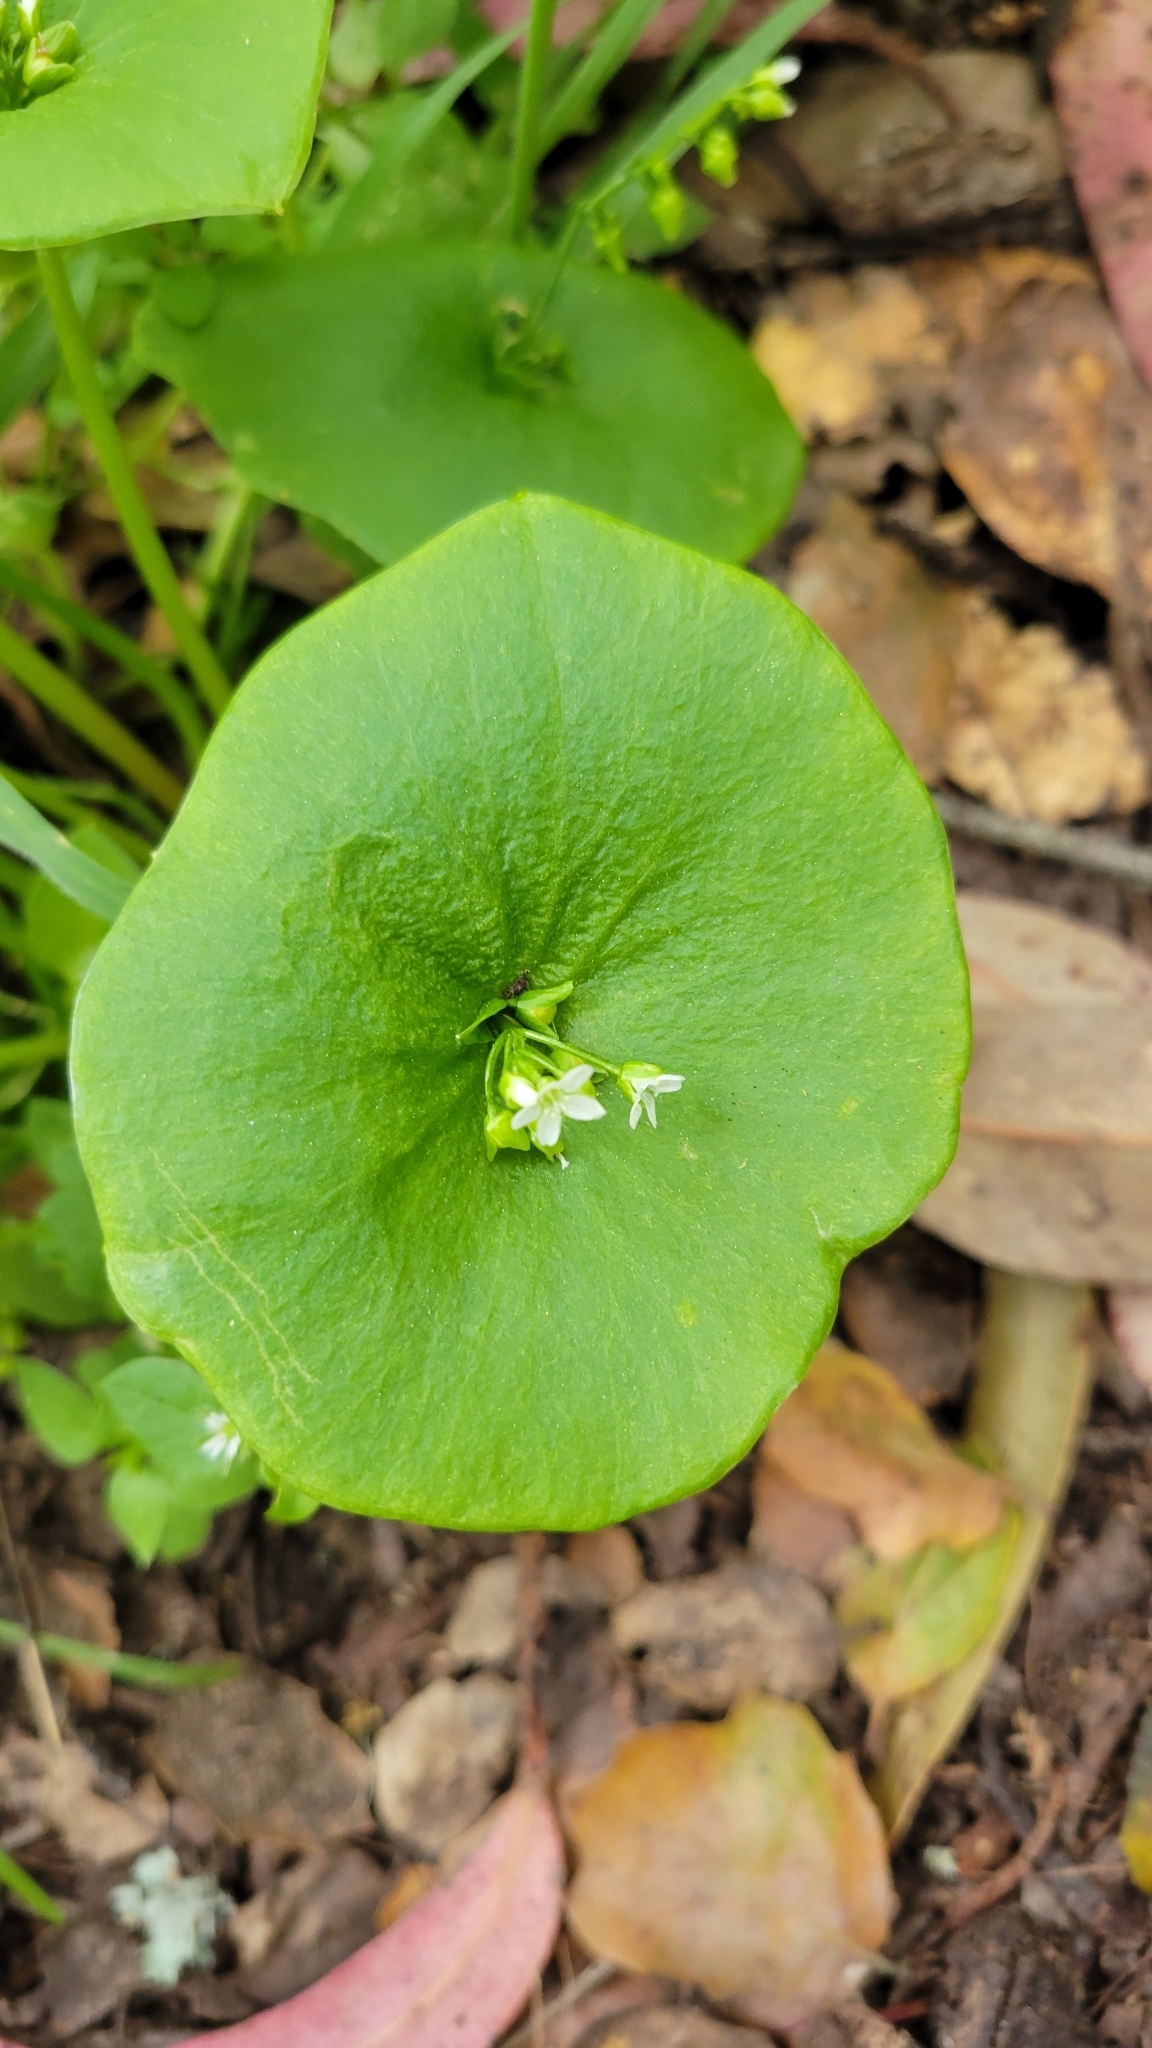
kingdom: Plantae
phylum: Tracheophyta
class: Magnoliopsida
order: Caryophyllales
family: Montiaceae
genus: Claytonia
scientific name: Claytonia perfoliata
